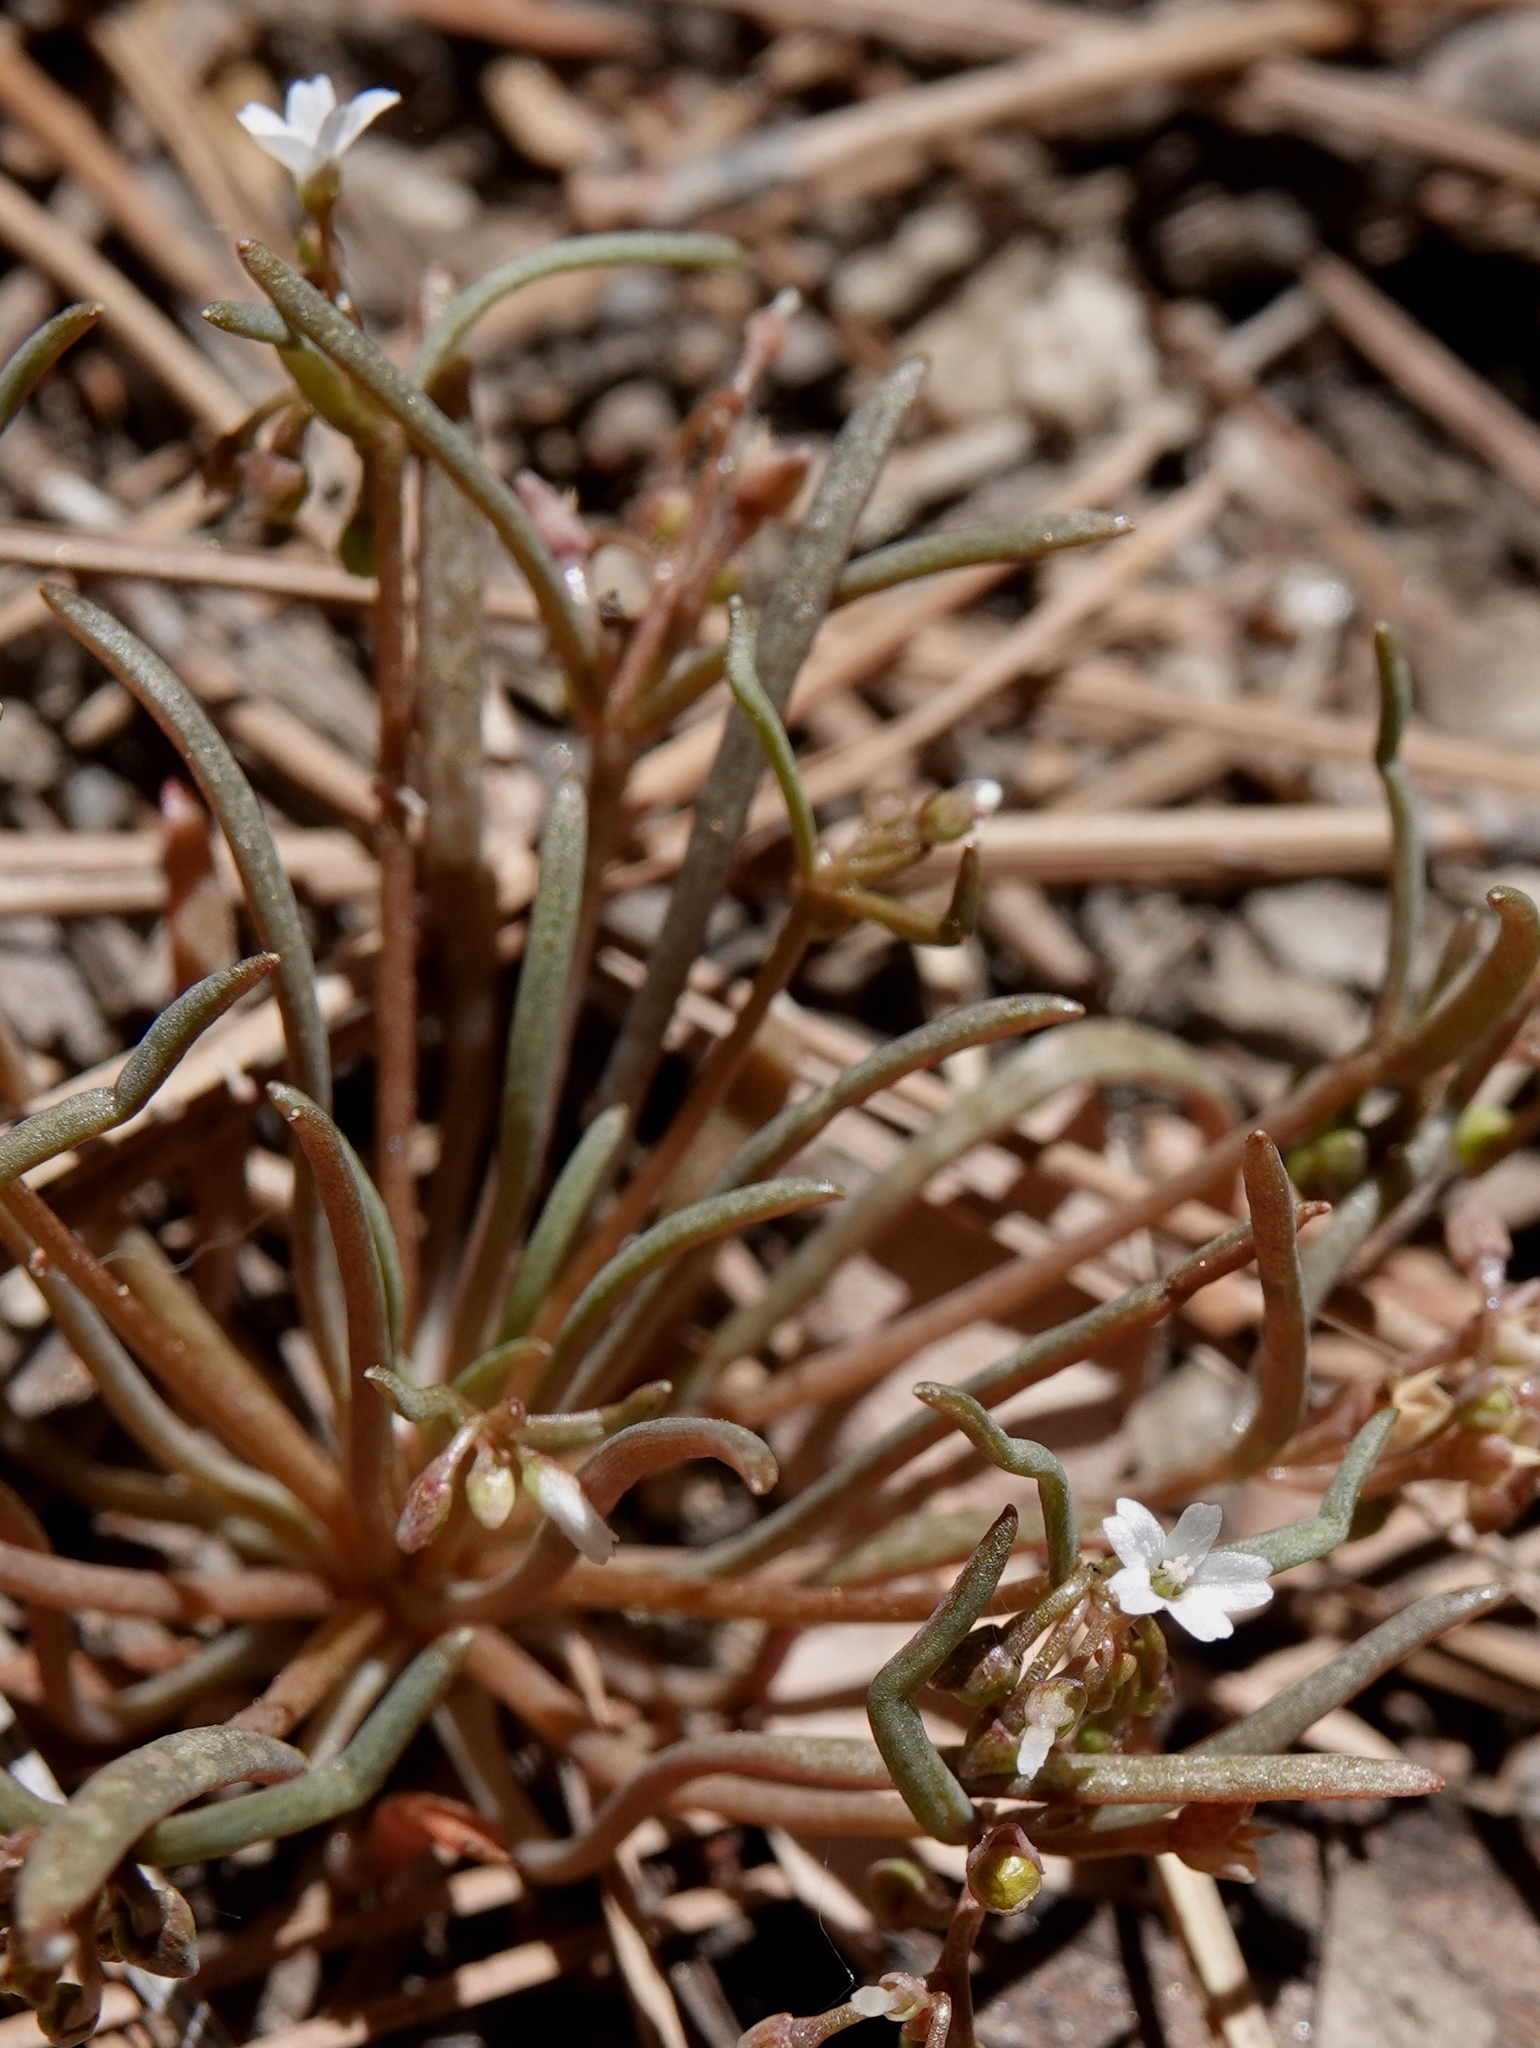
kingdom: Plantae
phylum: Tracheophyta
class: Magnoliopsida
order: Caryophyllales
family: Montiaceae
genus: Claytonia
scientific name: Claytonia parviflora
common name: Indian-lettuce
